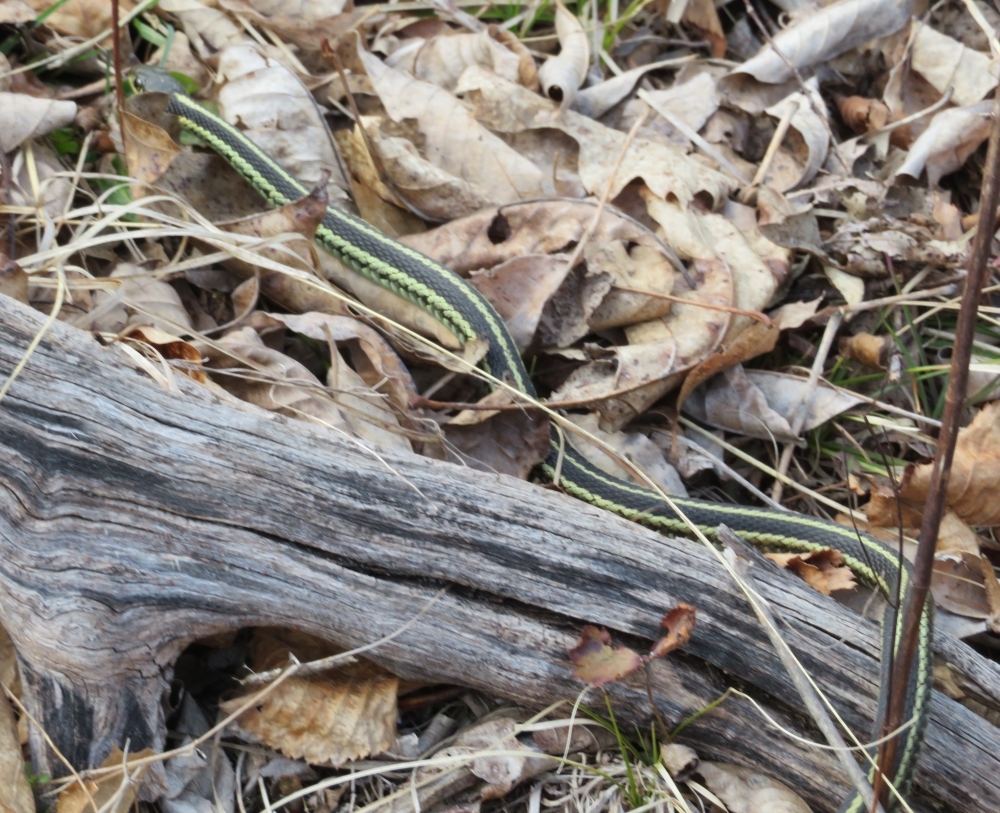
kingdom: Animalia
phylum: Chordata
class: Squamata
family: Colubridae
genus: Thamnophis
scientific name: Thamnophis sirtalis
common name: Common garter snake
